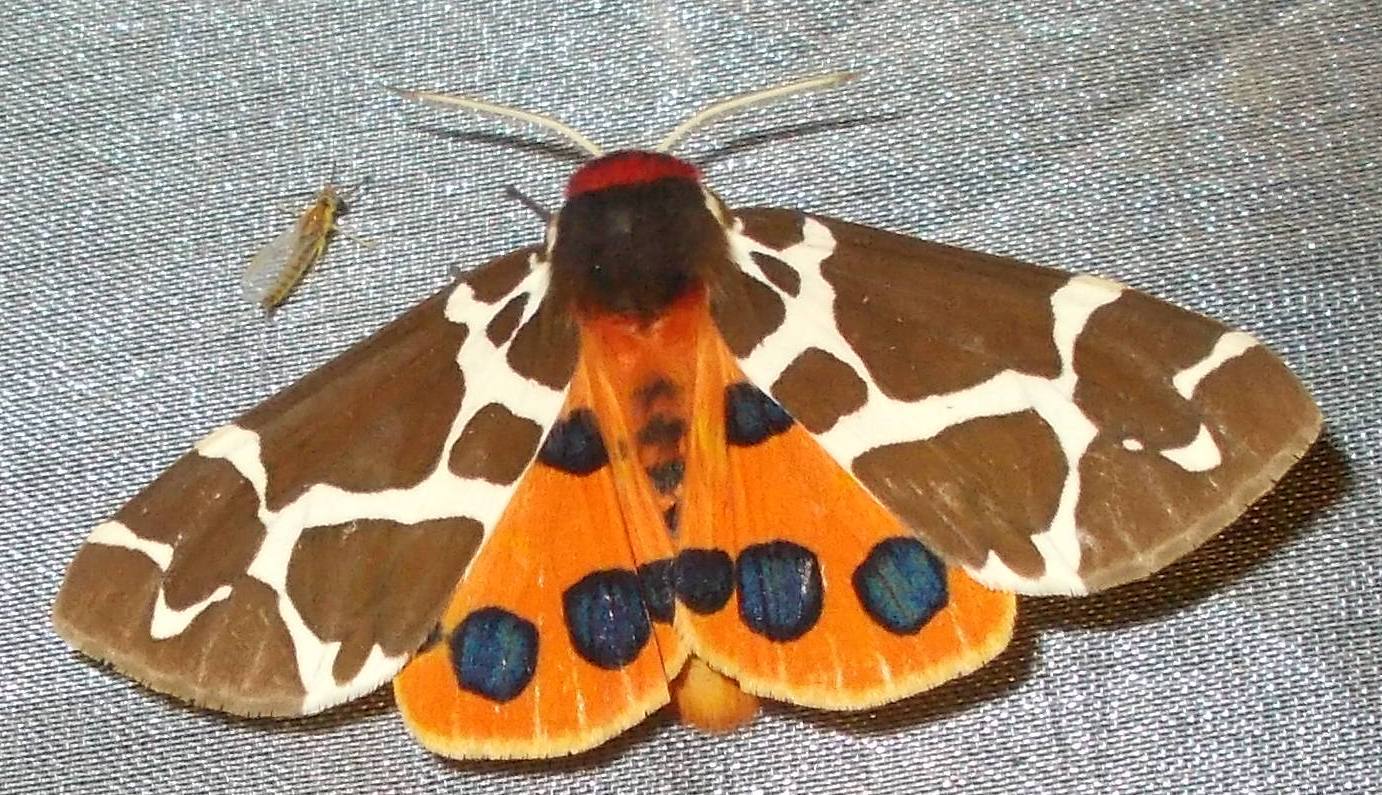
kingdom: Animalia
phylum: Arthropoda
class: Insecta
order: Lepidoptera
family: Erebidae
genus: Arctia
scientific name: Arctia caja
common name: Garden tiger
